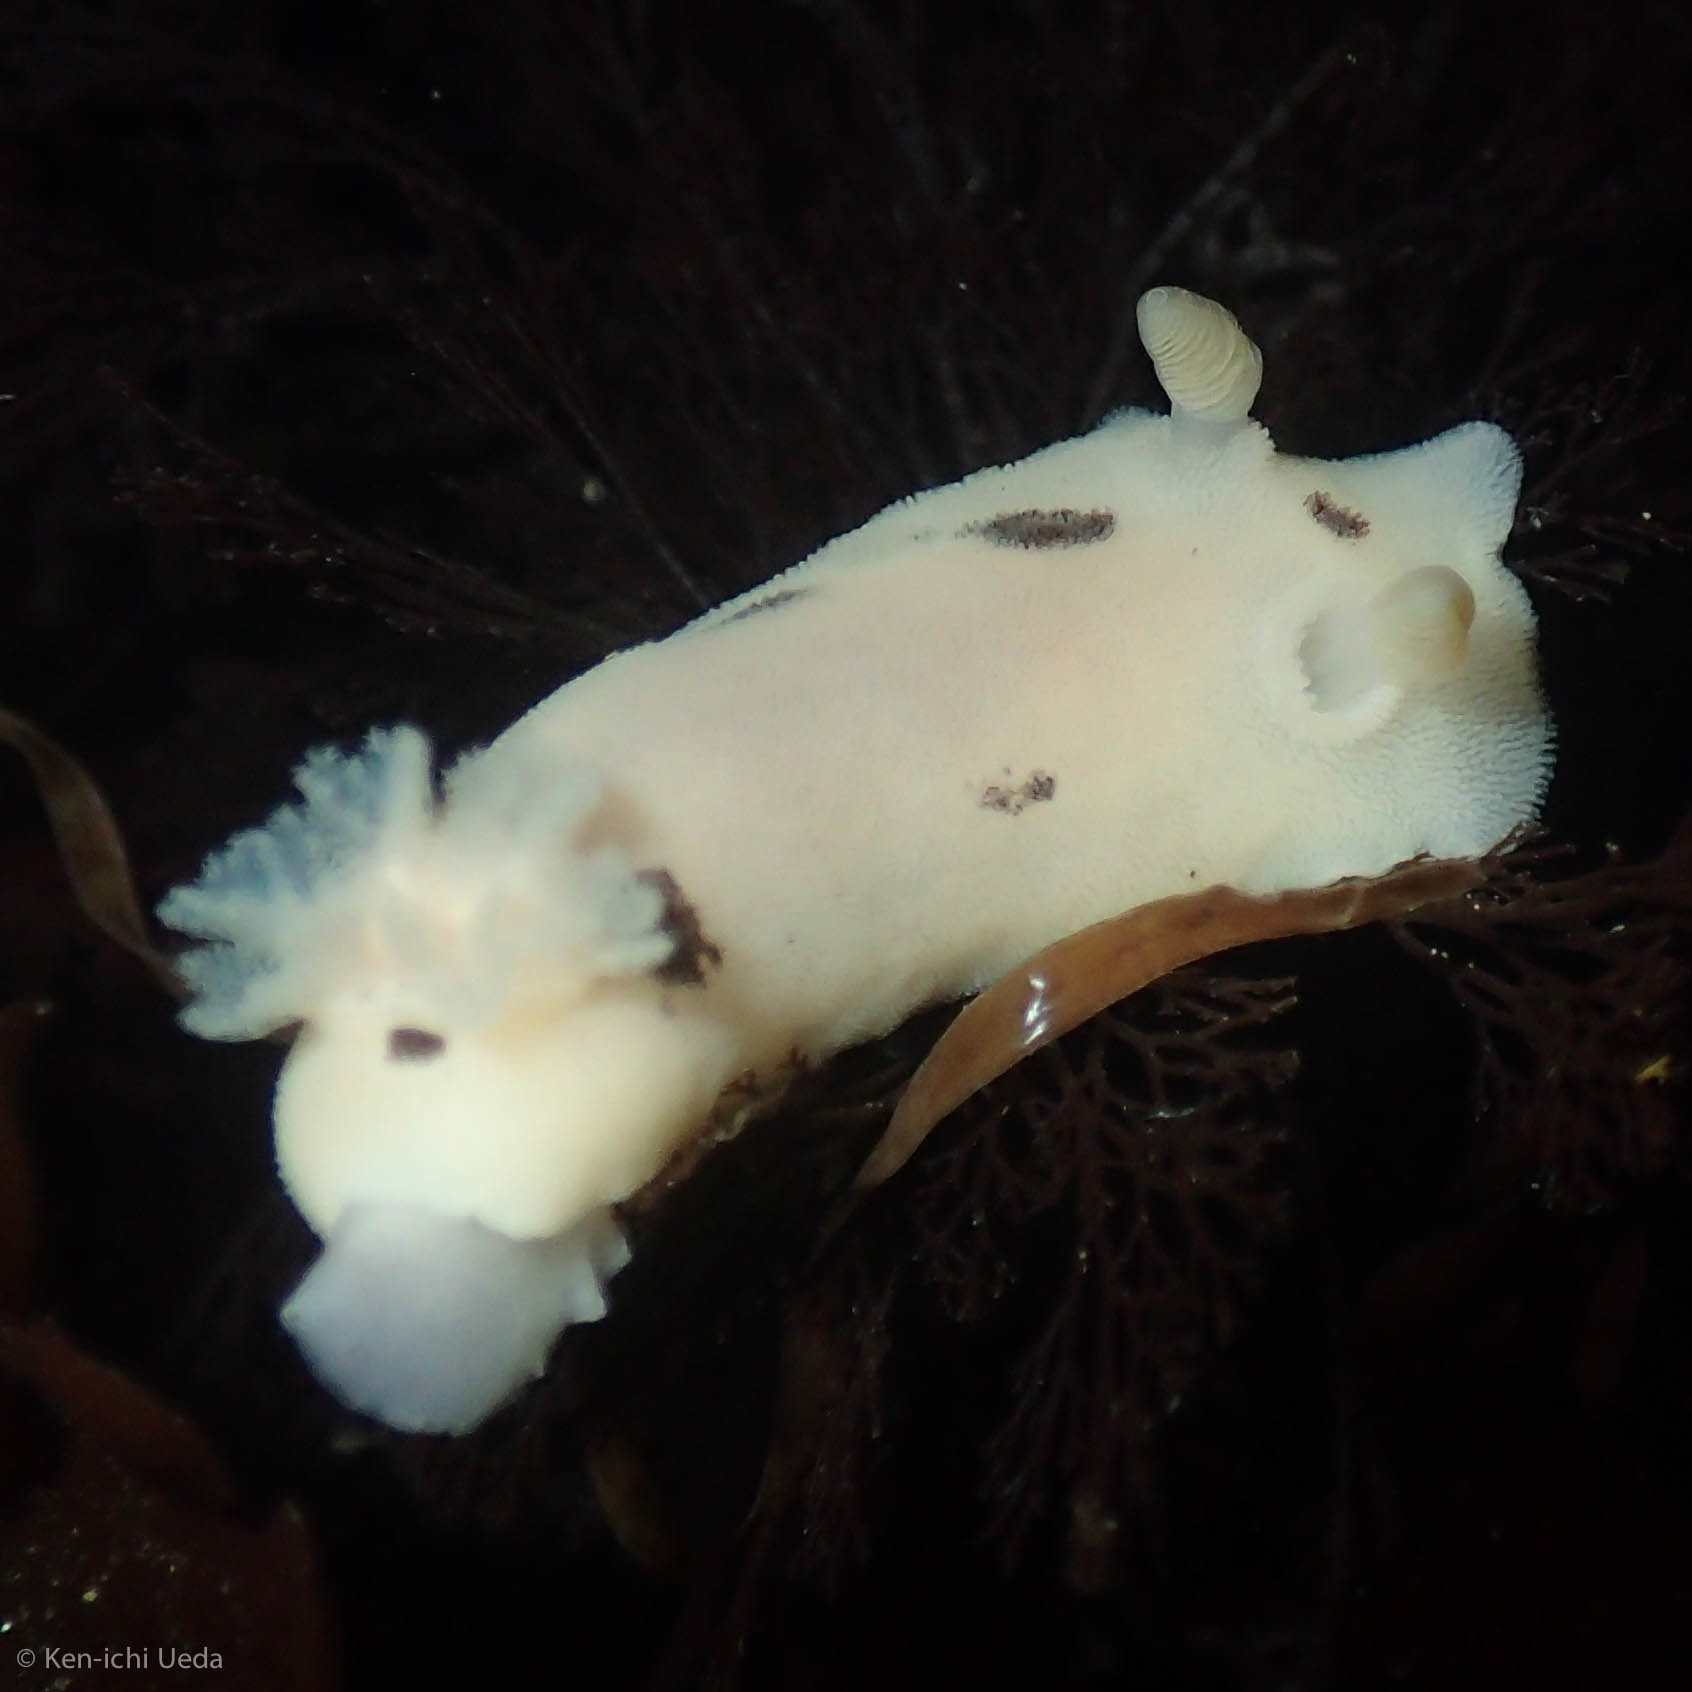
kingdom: Animalia
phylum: Mollusca
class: Gastropoda
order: Nudibranchia
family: Discodorididae
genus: Diaulula
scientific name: Diaulula sandiegensis
